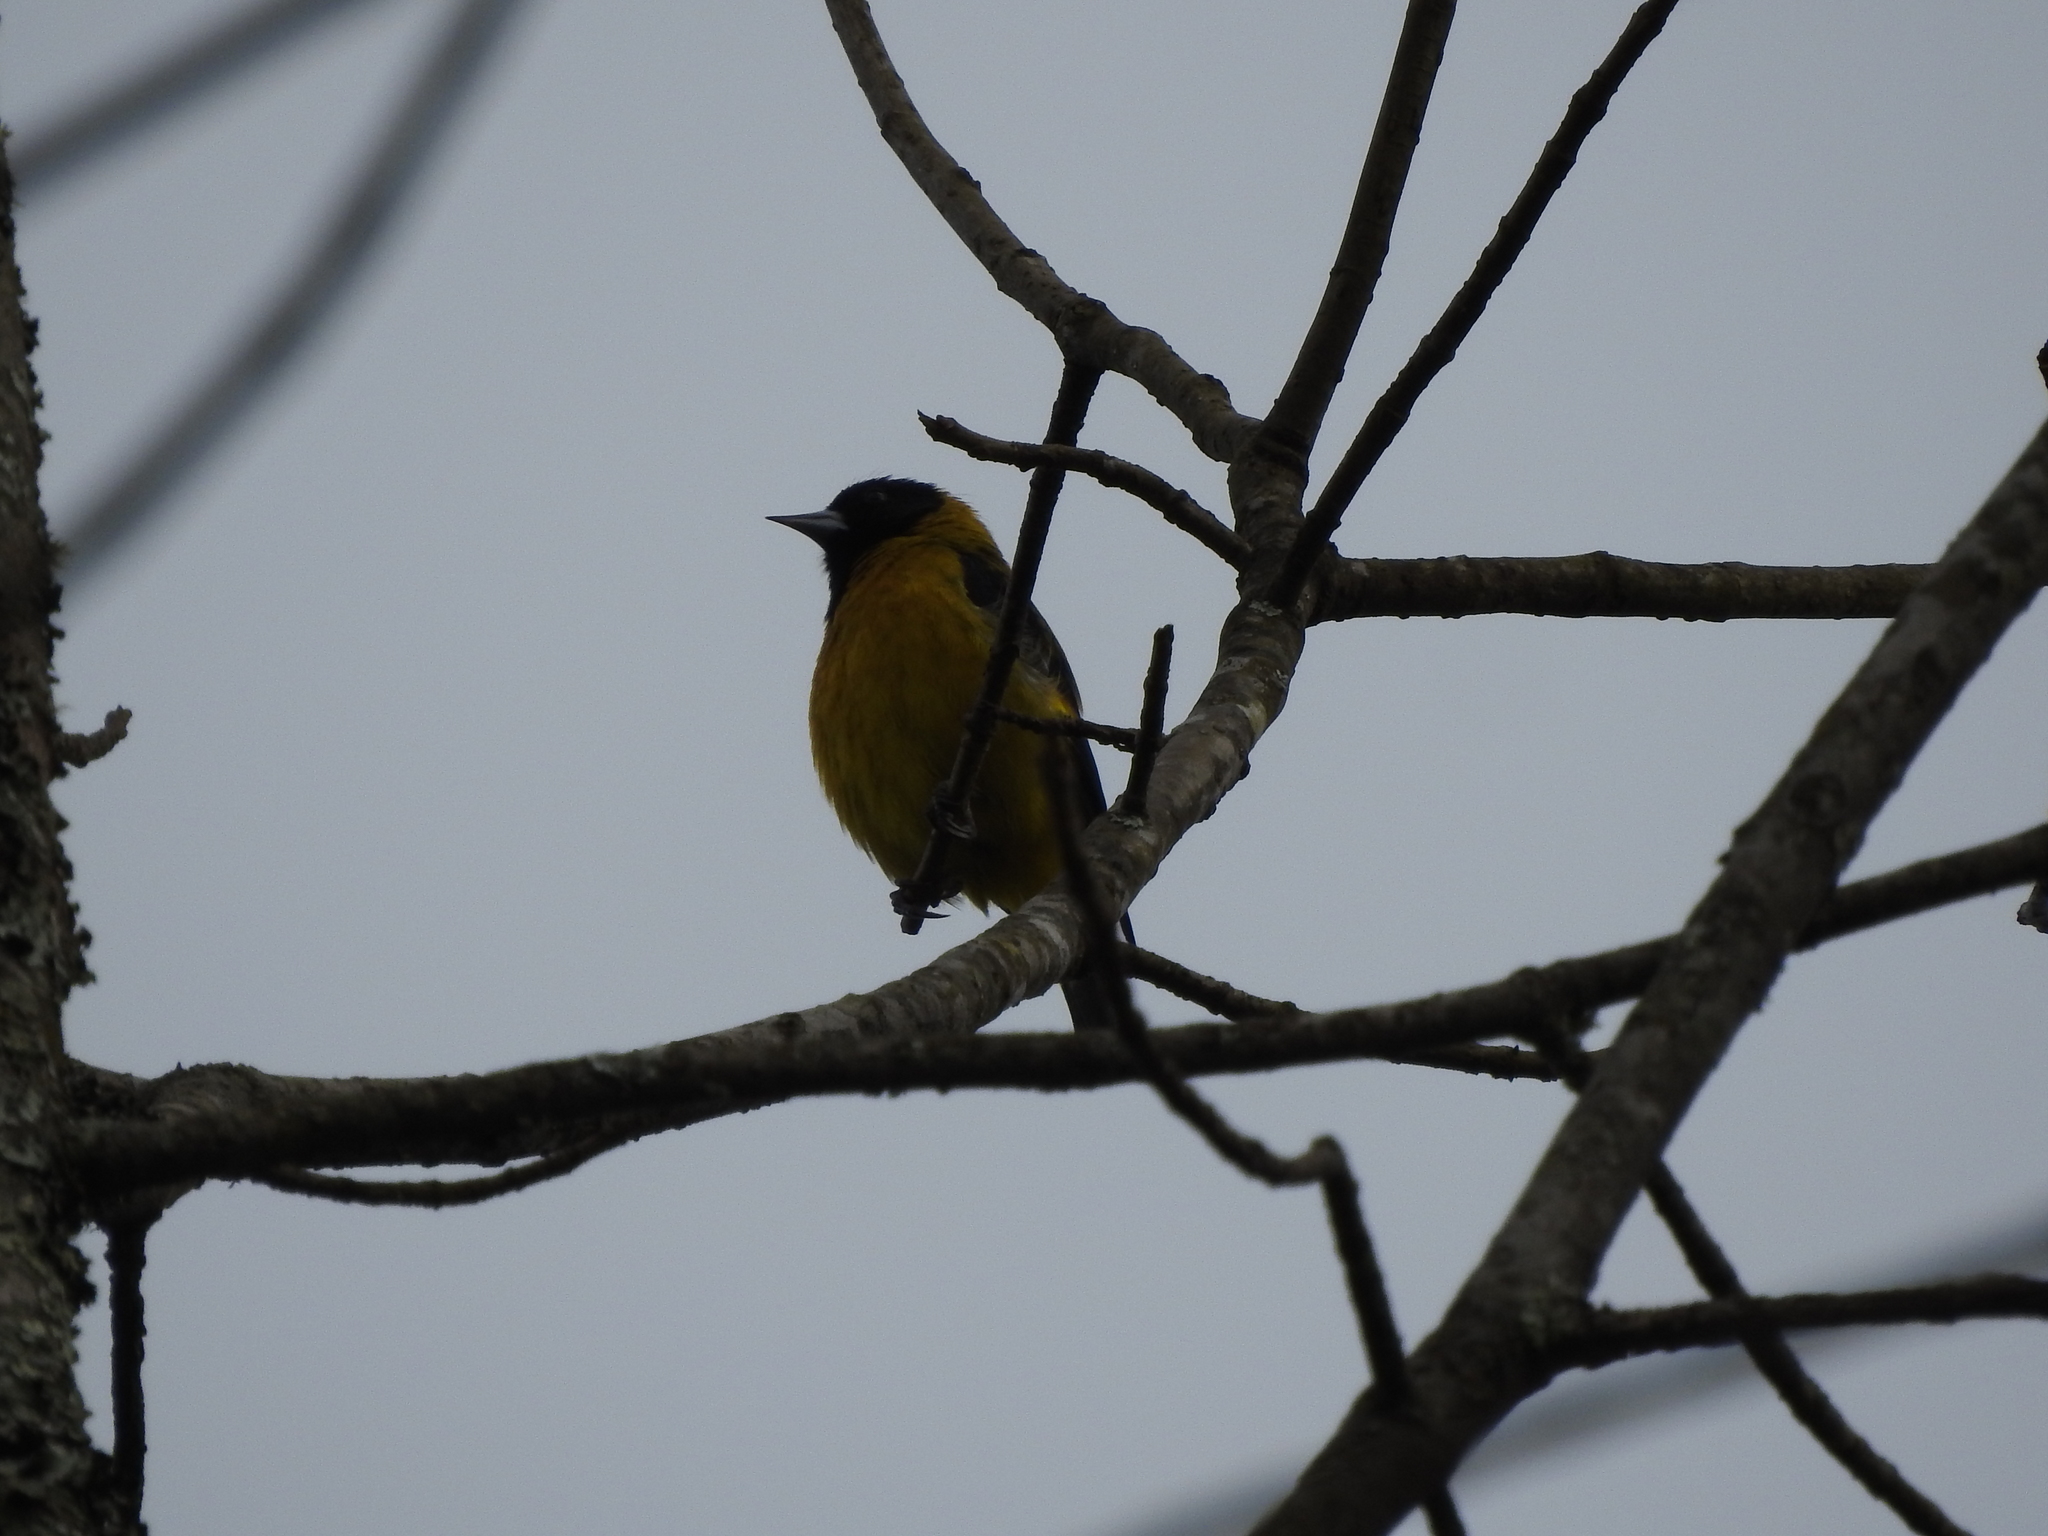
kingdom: Animalia
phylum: Chordata
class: Aves
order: Passeriformes
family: Fringillidae
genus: Spinus
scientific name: Spinus notatus
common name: Black-headed siskin
